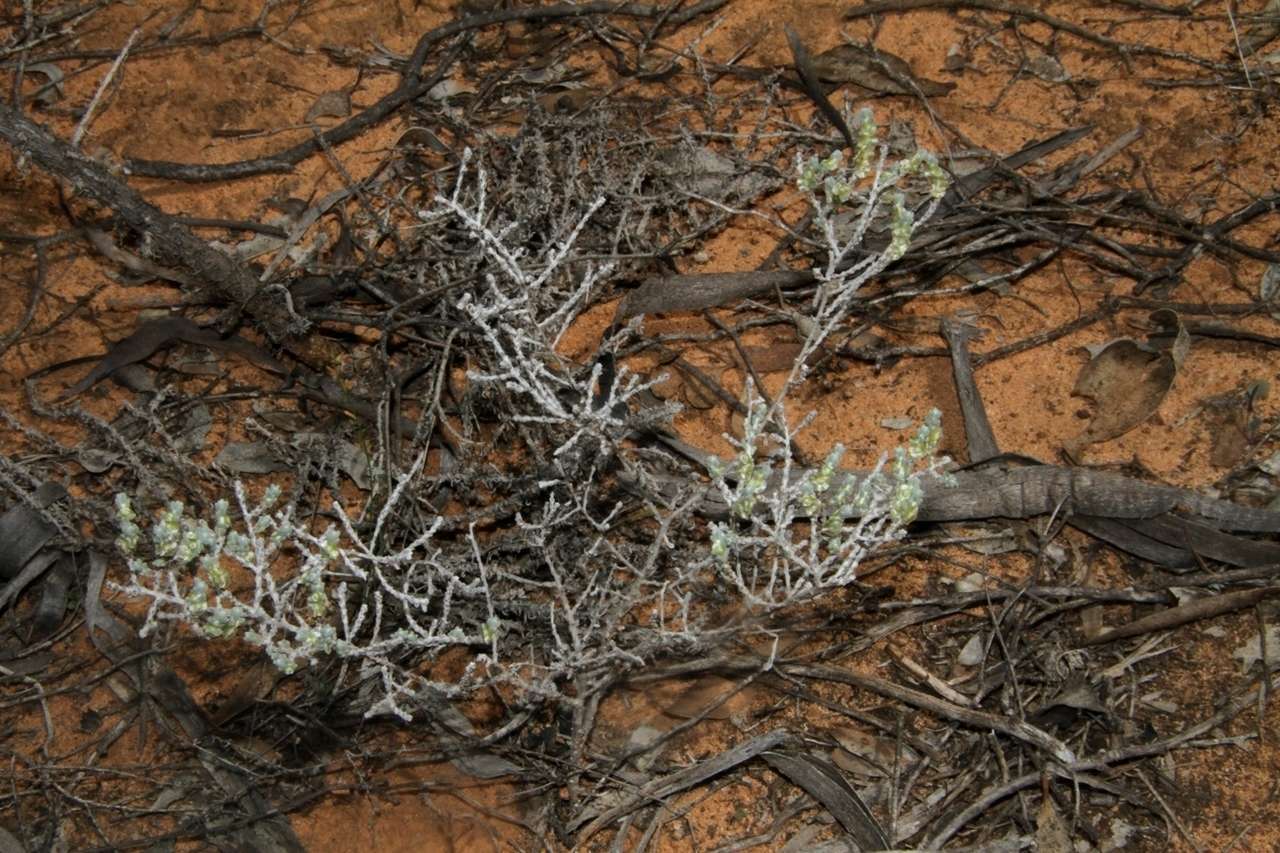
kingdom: Plantae
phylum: Tracheophyta
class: Magnoliopsida
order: Caryophyllales
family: Amaranthaceae
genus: Maireana
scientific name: Maireana radiata
